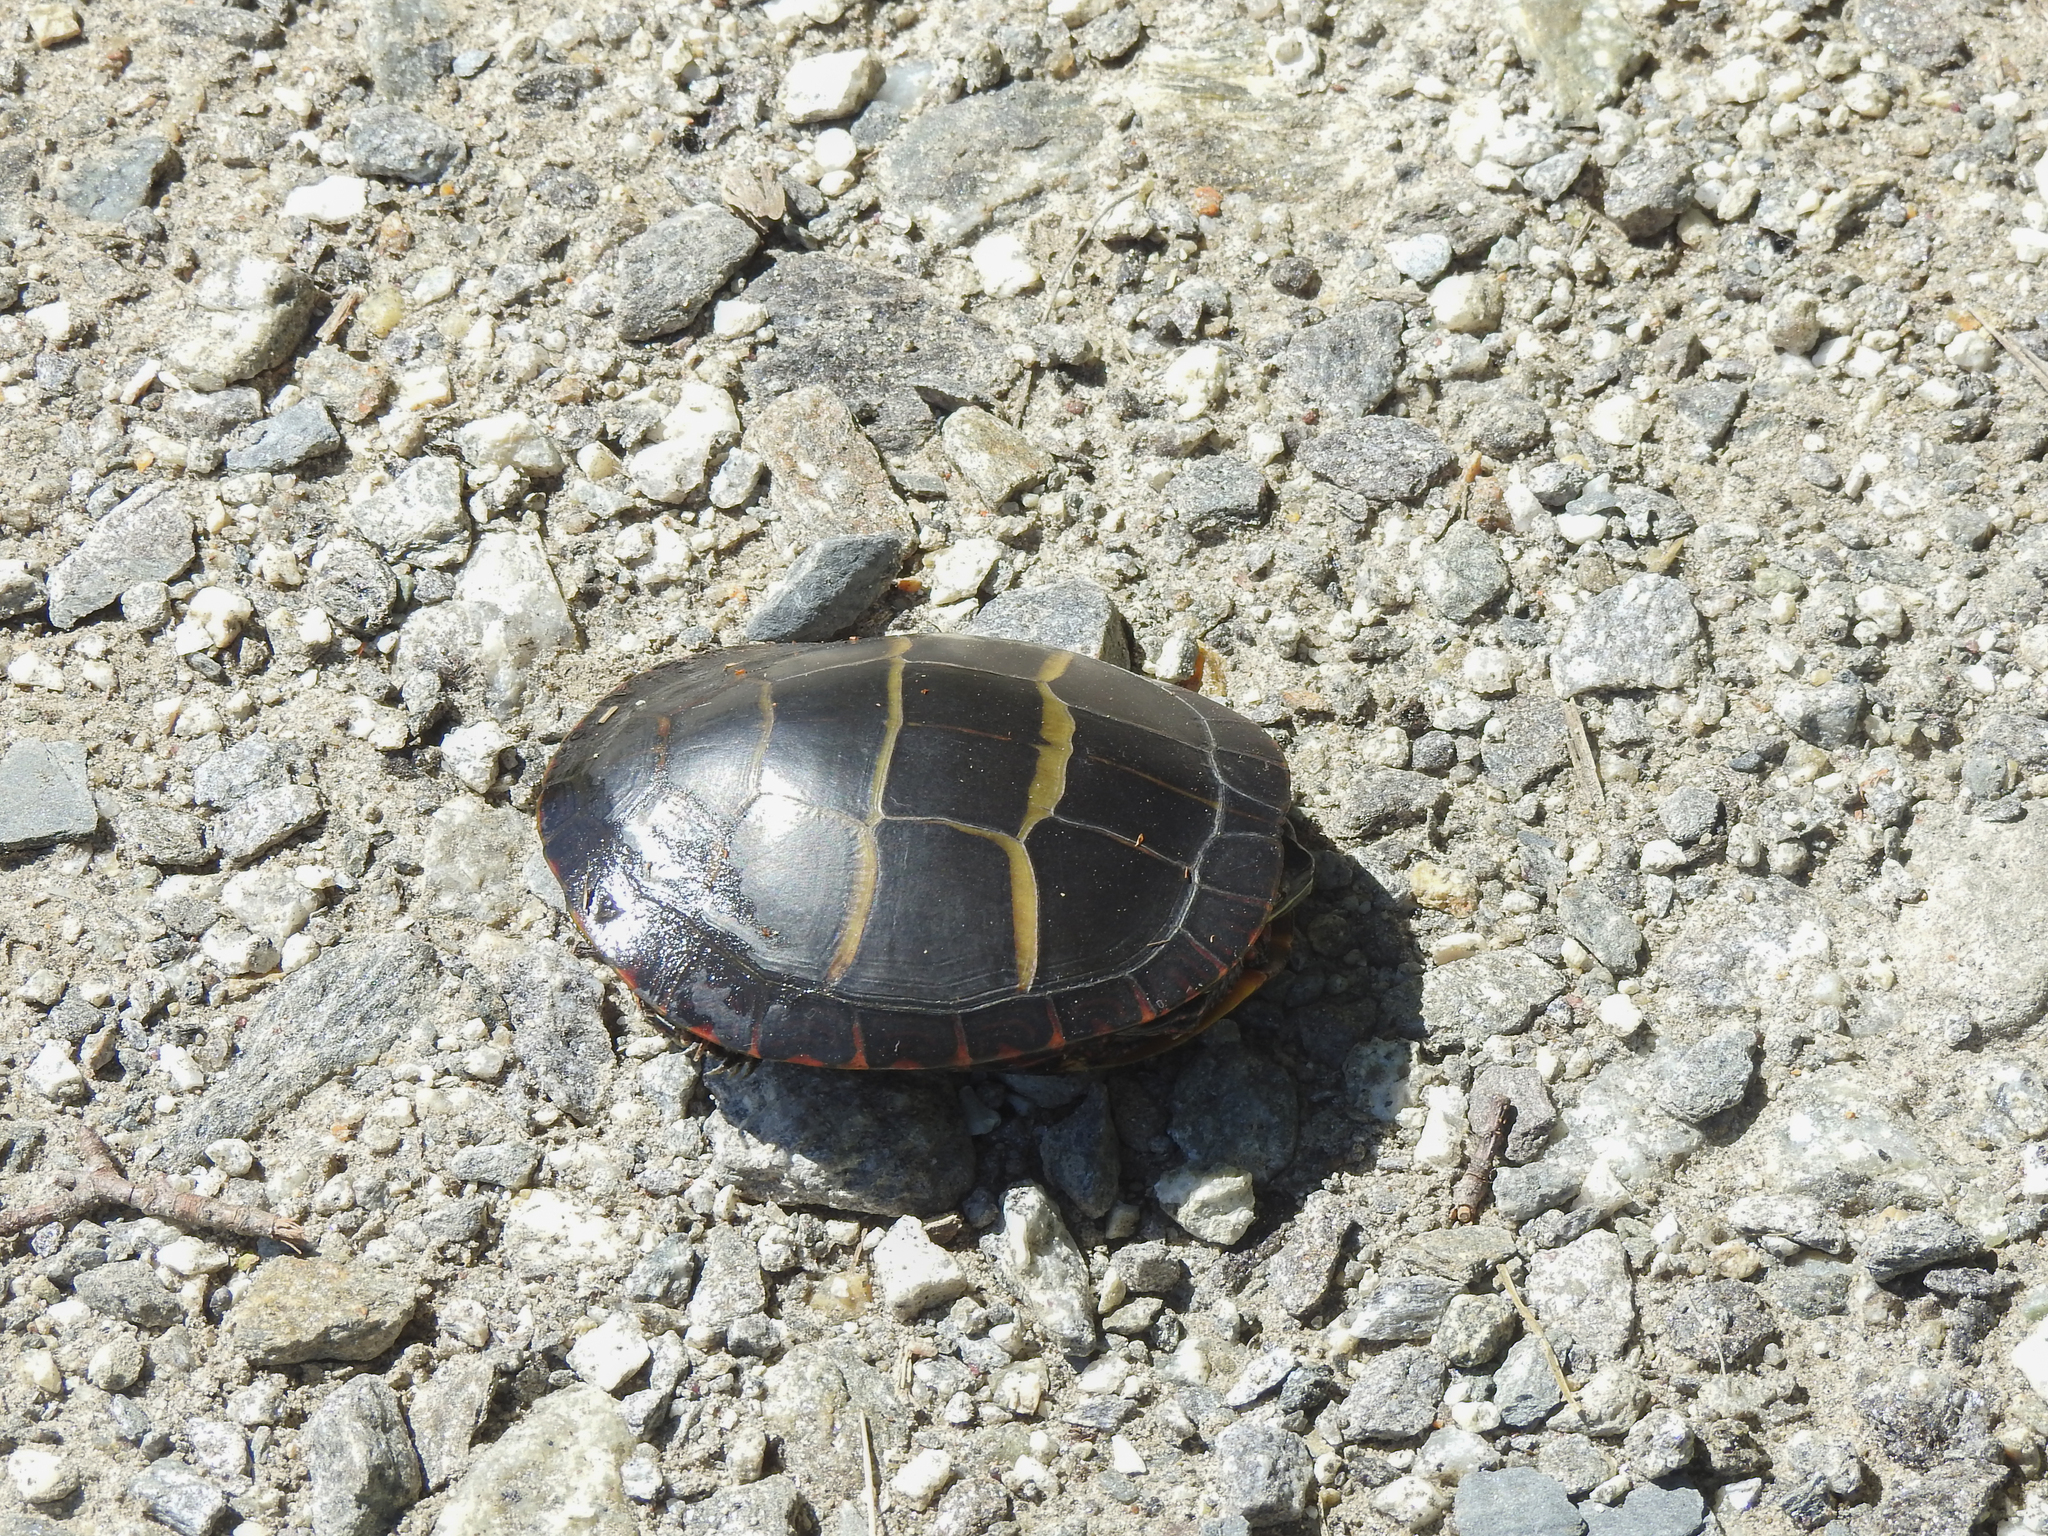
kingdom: Animalia
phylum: Chordata
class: Testudines
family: Emydidae
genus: Chrysemys
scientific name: Chrysemys picta
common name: Painted turtle
